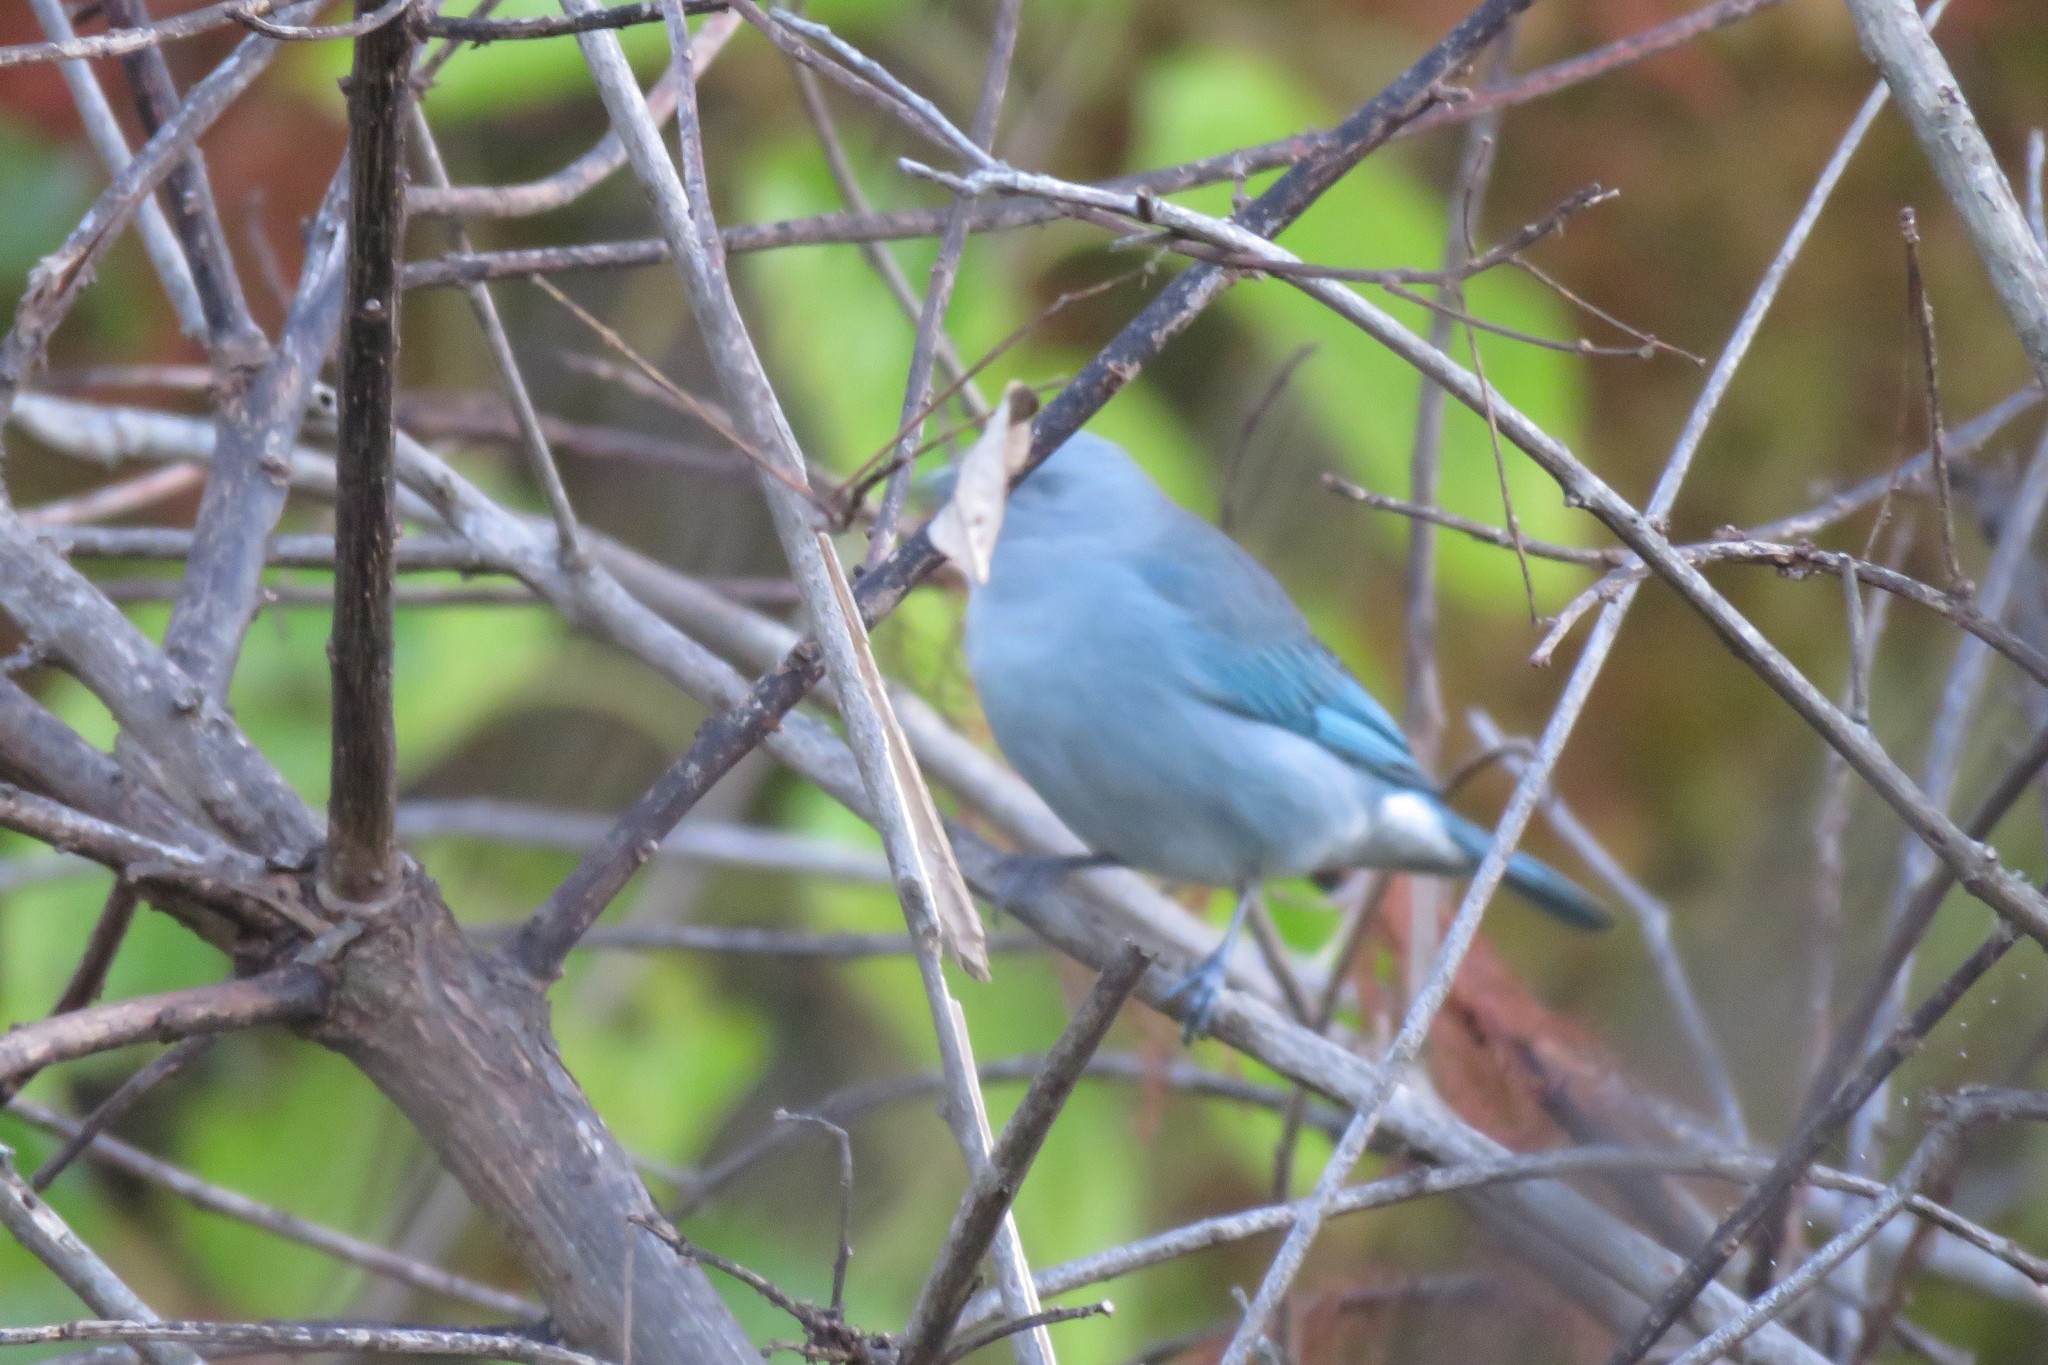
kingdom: Animalia
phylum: Chordata
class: Aves
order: Passeriformes
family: Thraupidae
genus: Thraupis
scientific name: Thraupis sayaca
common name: Sayaca tanager
